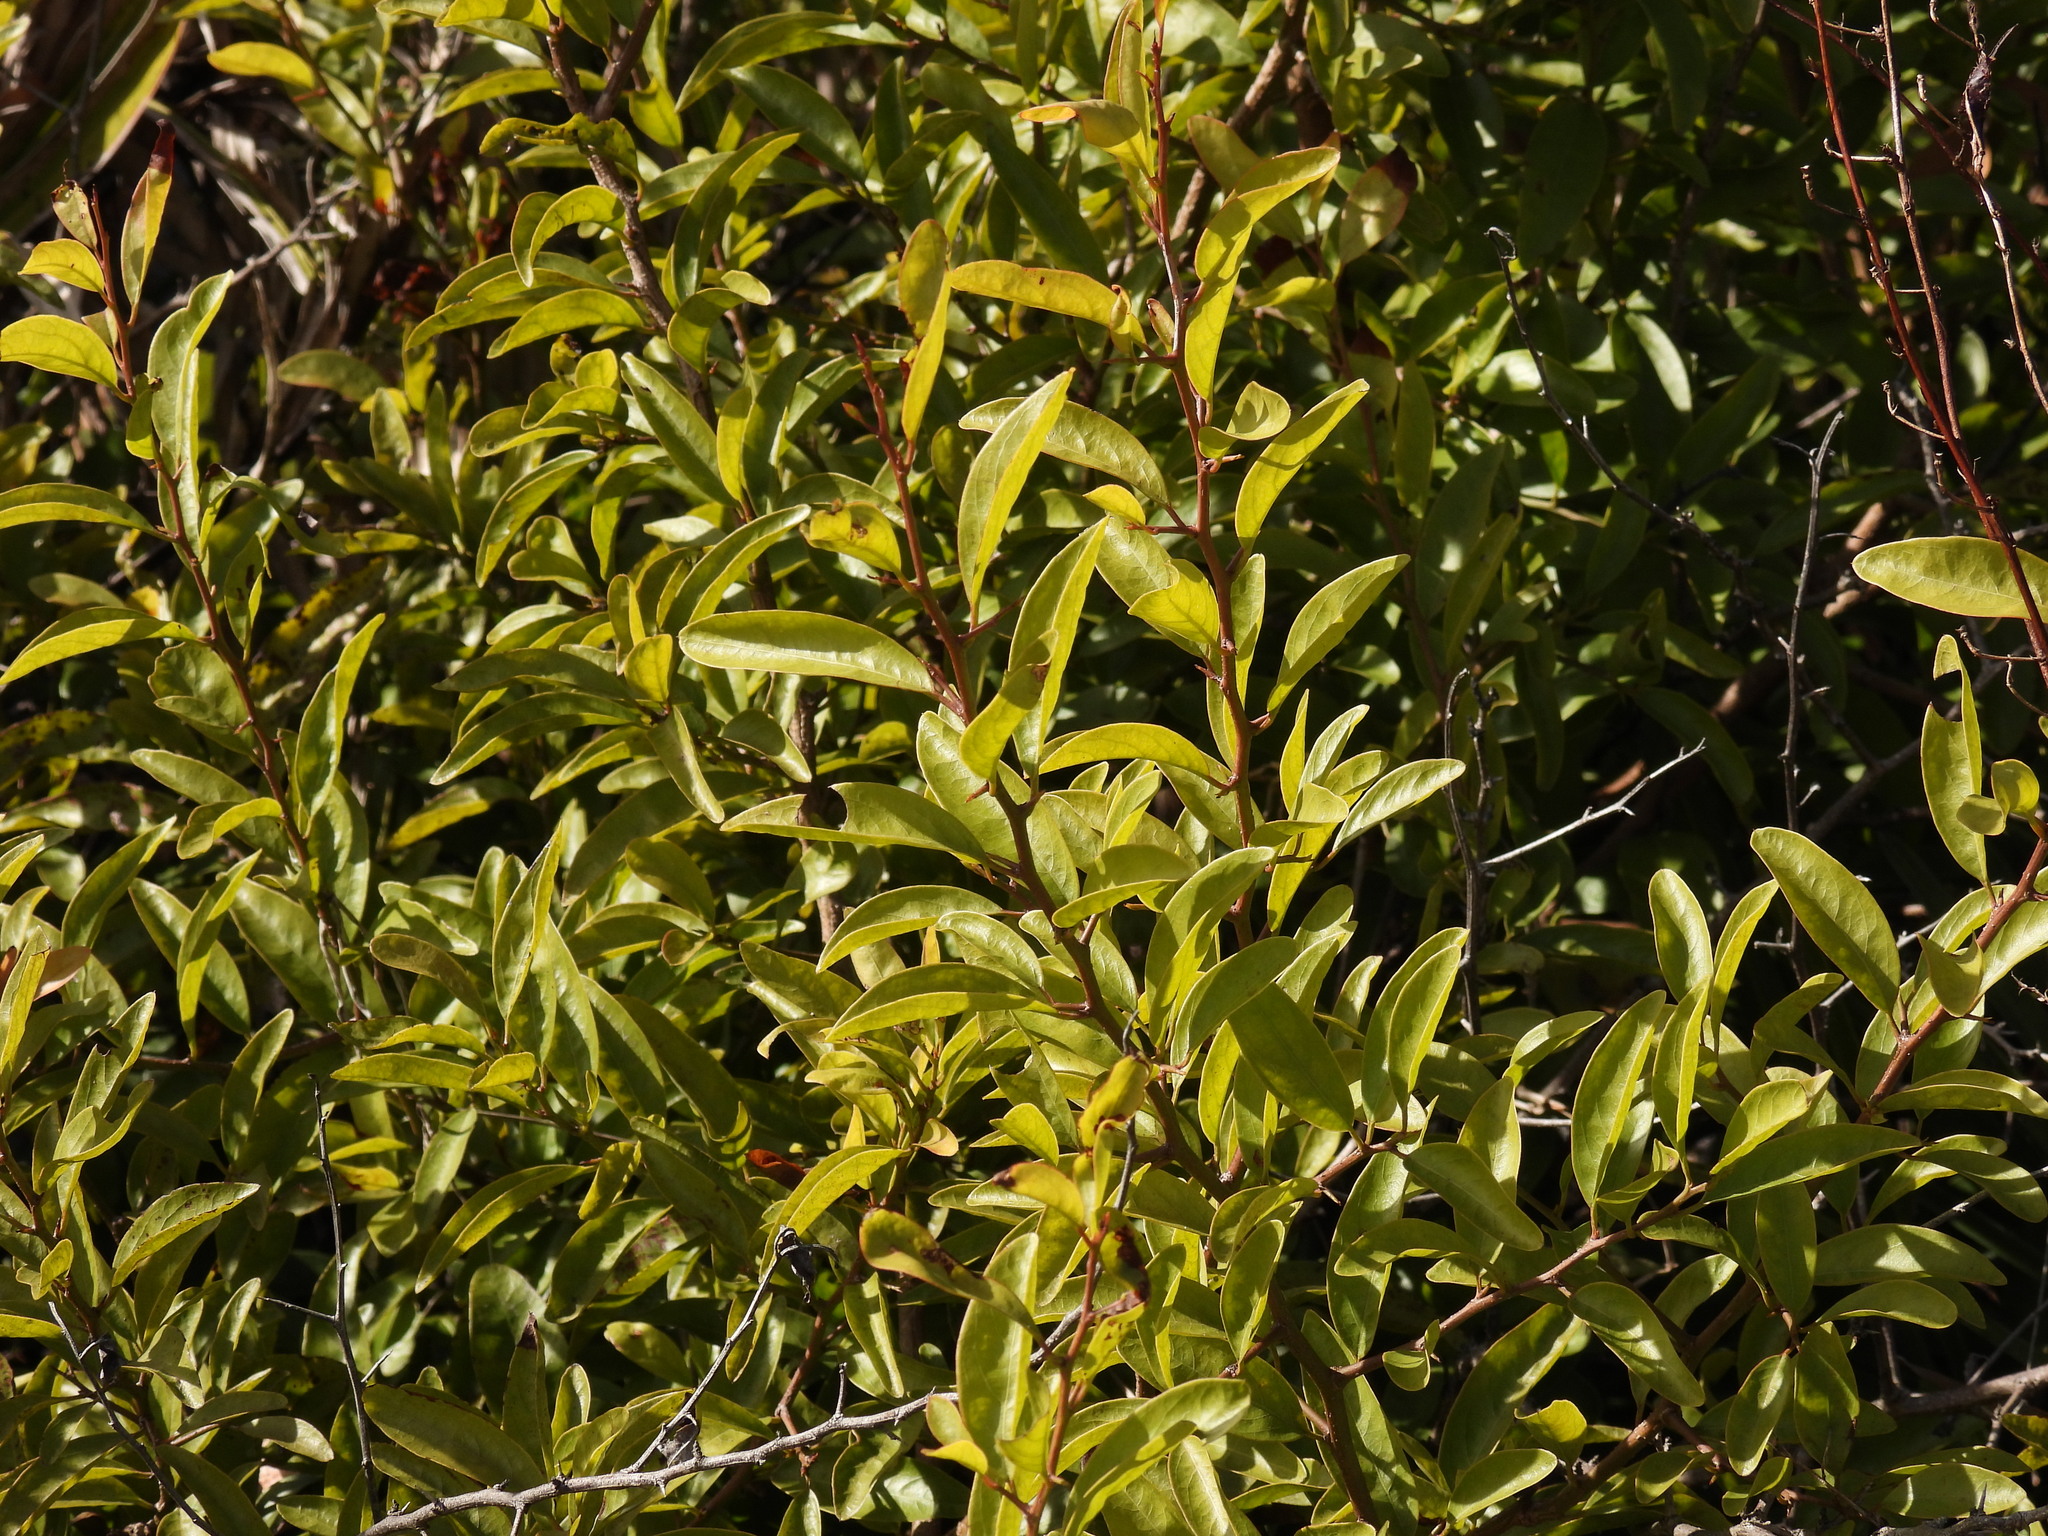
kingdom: Plantae
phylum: Tracheophyta
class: Magnoliopsida
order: Santalales
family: Ximeniaceae
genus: Ximenia
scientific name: Ximenia americana
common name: Tallowwood
